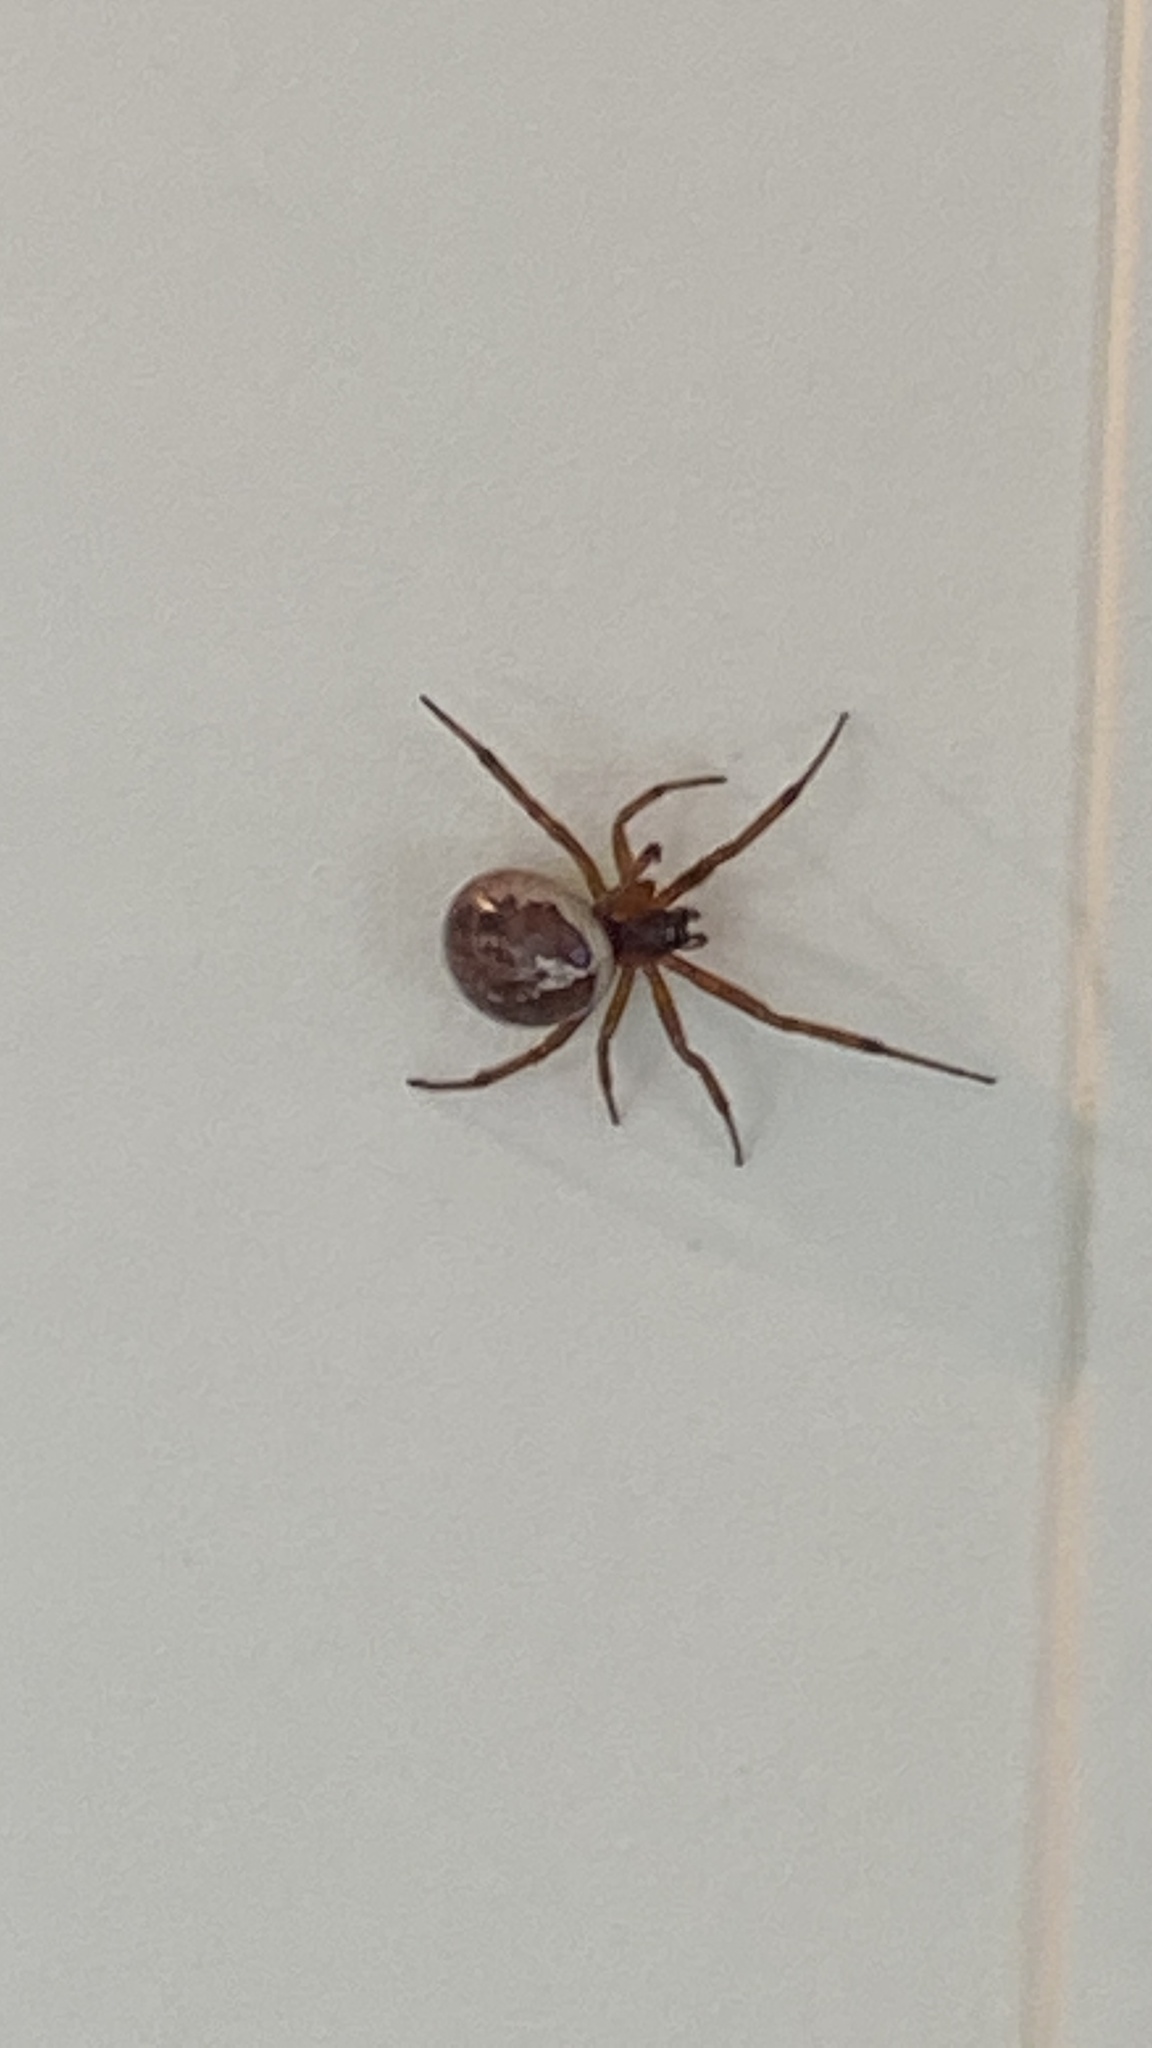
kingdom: Animalia
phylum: Arthropoda
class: Arachnida
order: Araneae
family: Theridiidae
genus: Steatoda
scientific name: Steatoda nobilis
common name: Cobweb weaver
